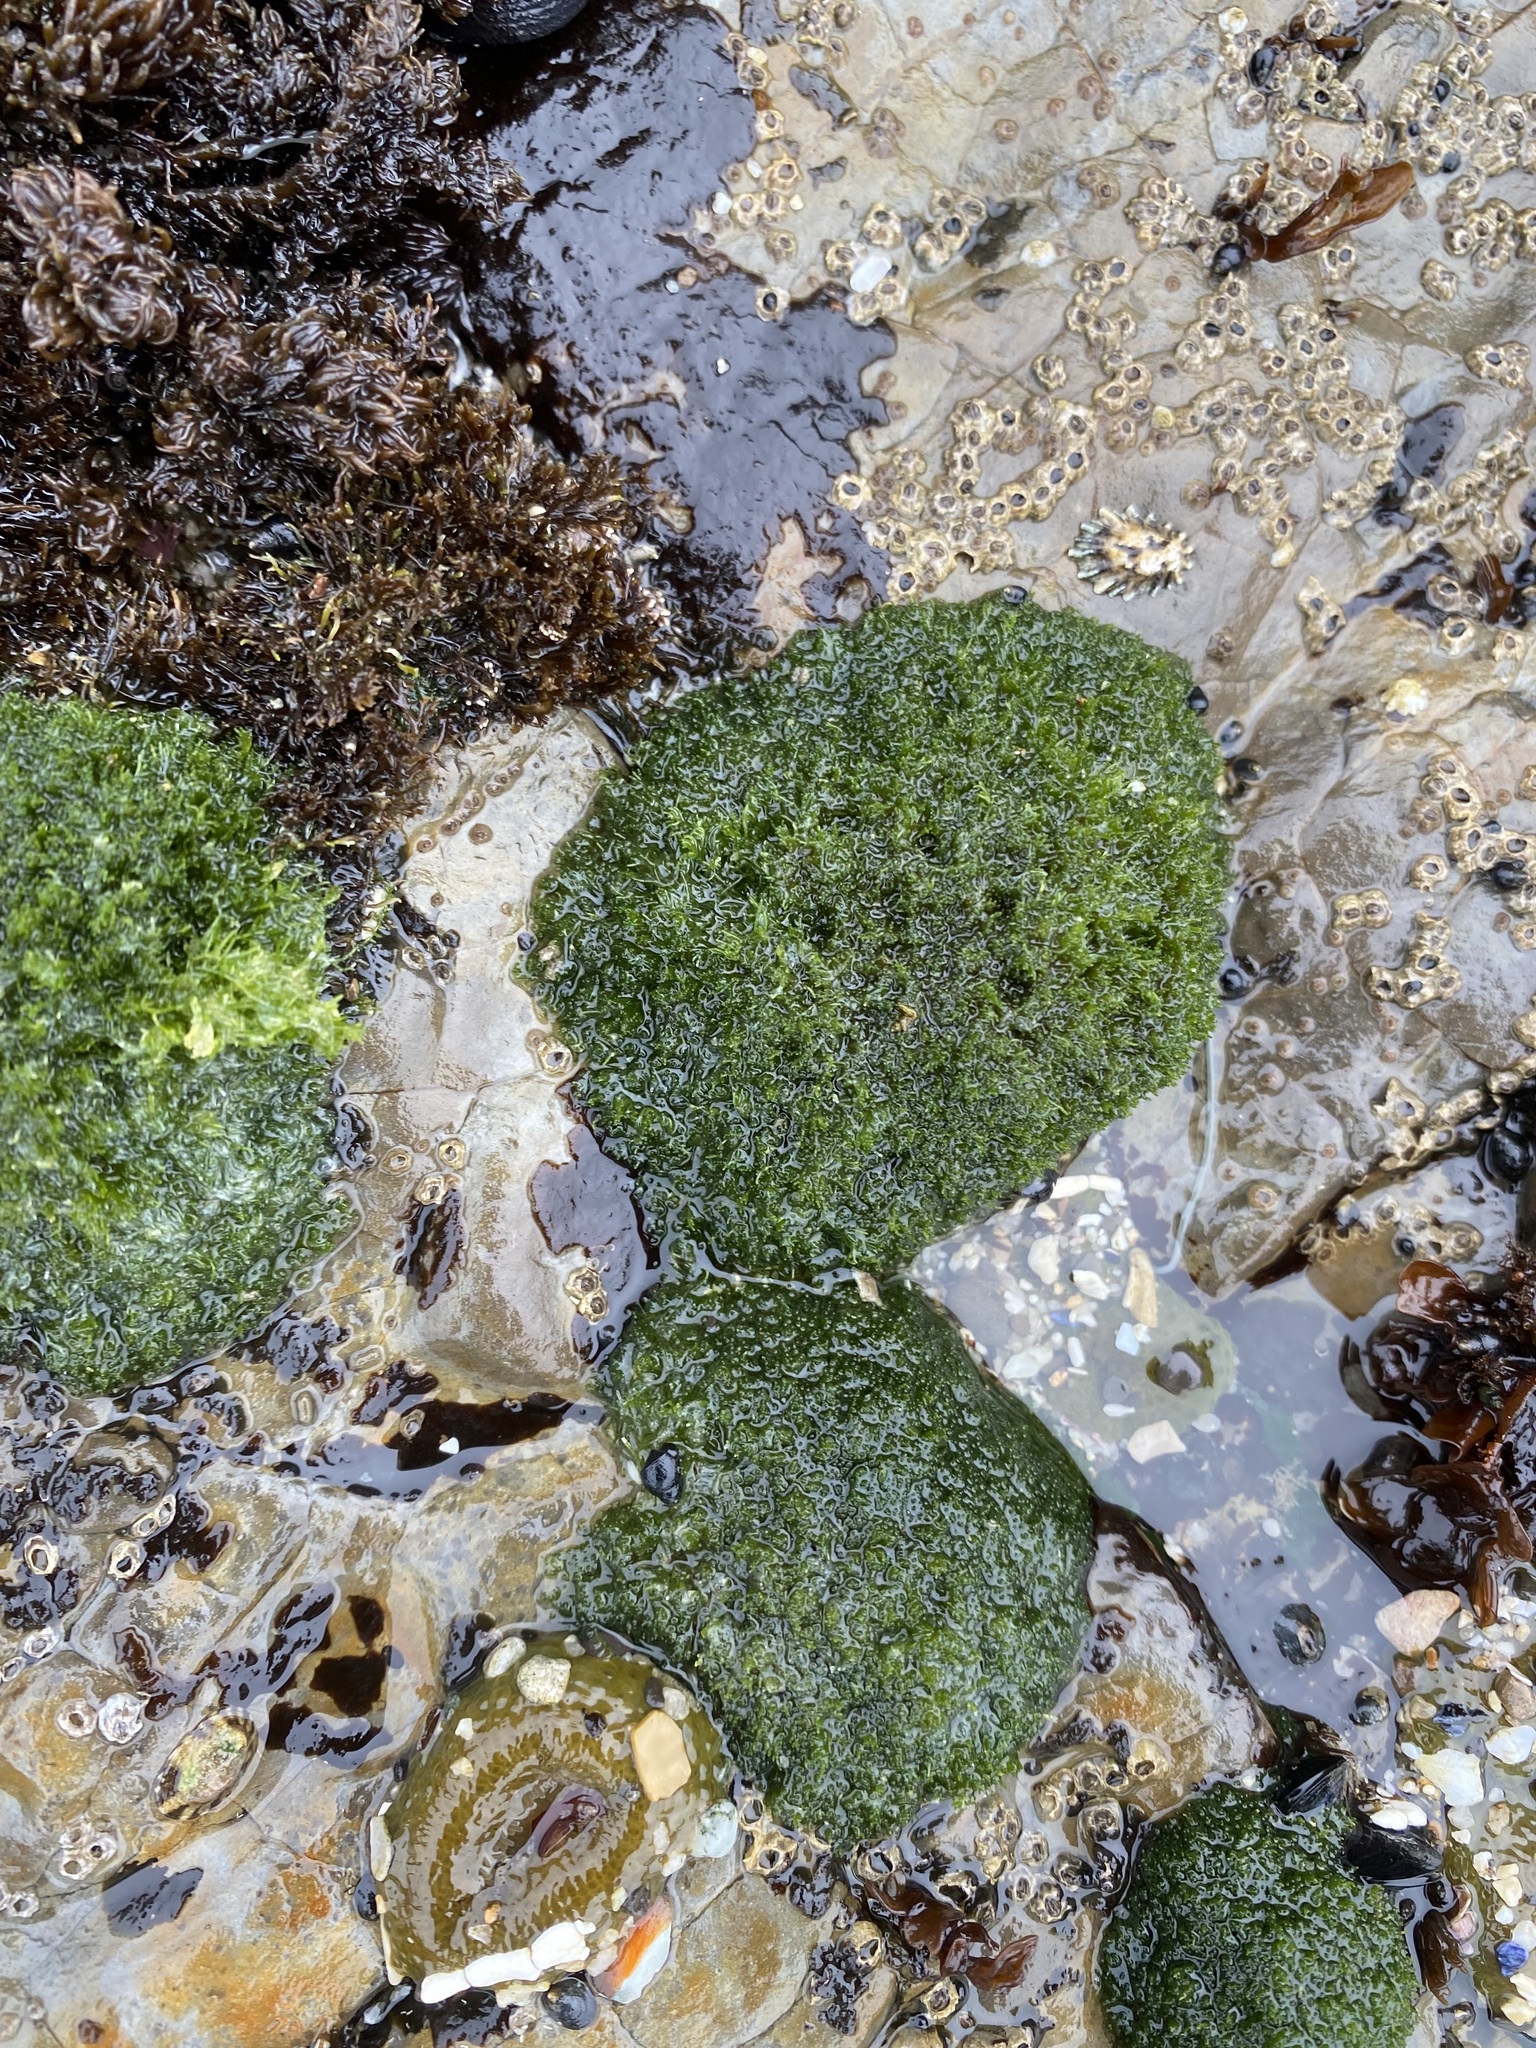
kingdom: Plantae
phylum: Chlorophyta
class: Ulvophyceae
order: Cladophorales
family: Cladophoraceae
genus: Cladophora
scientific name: Cladophora columbiana
